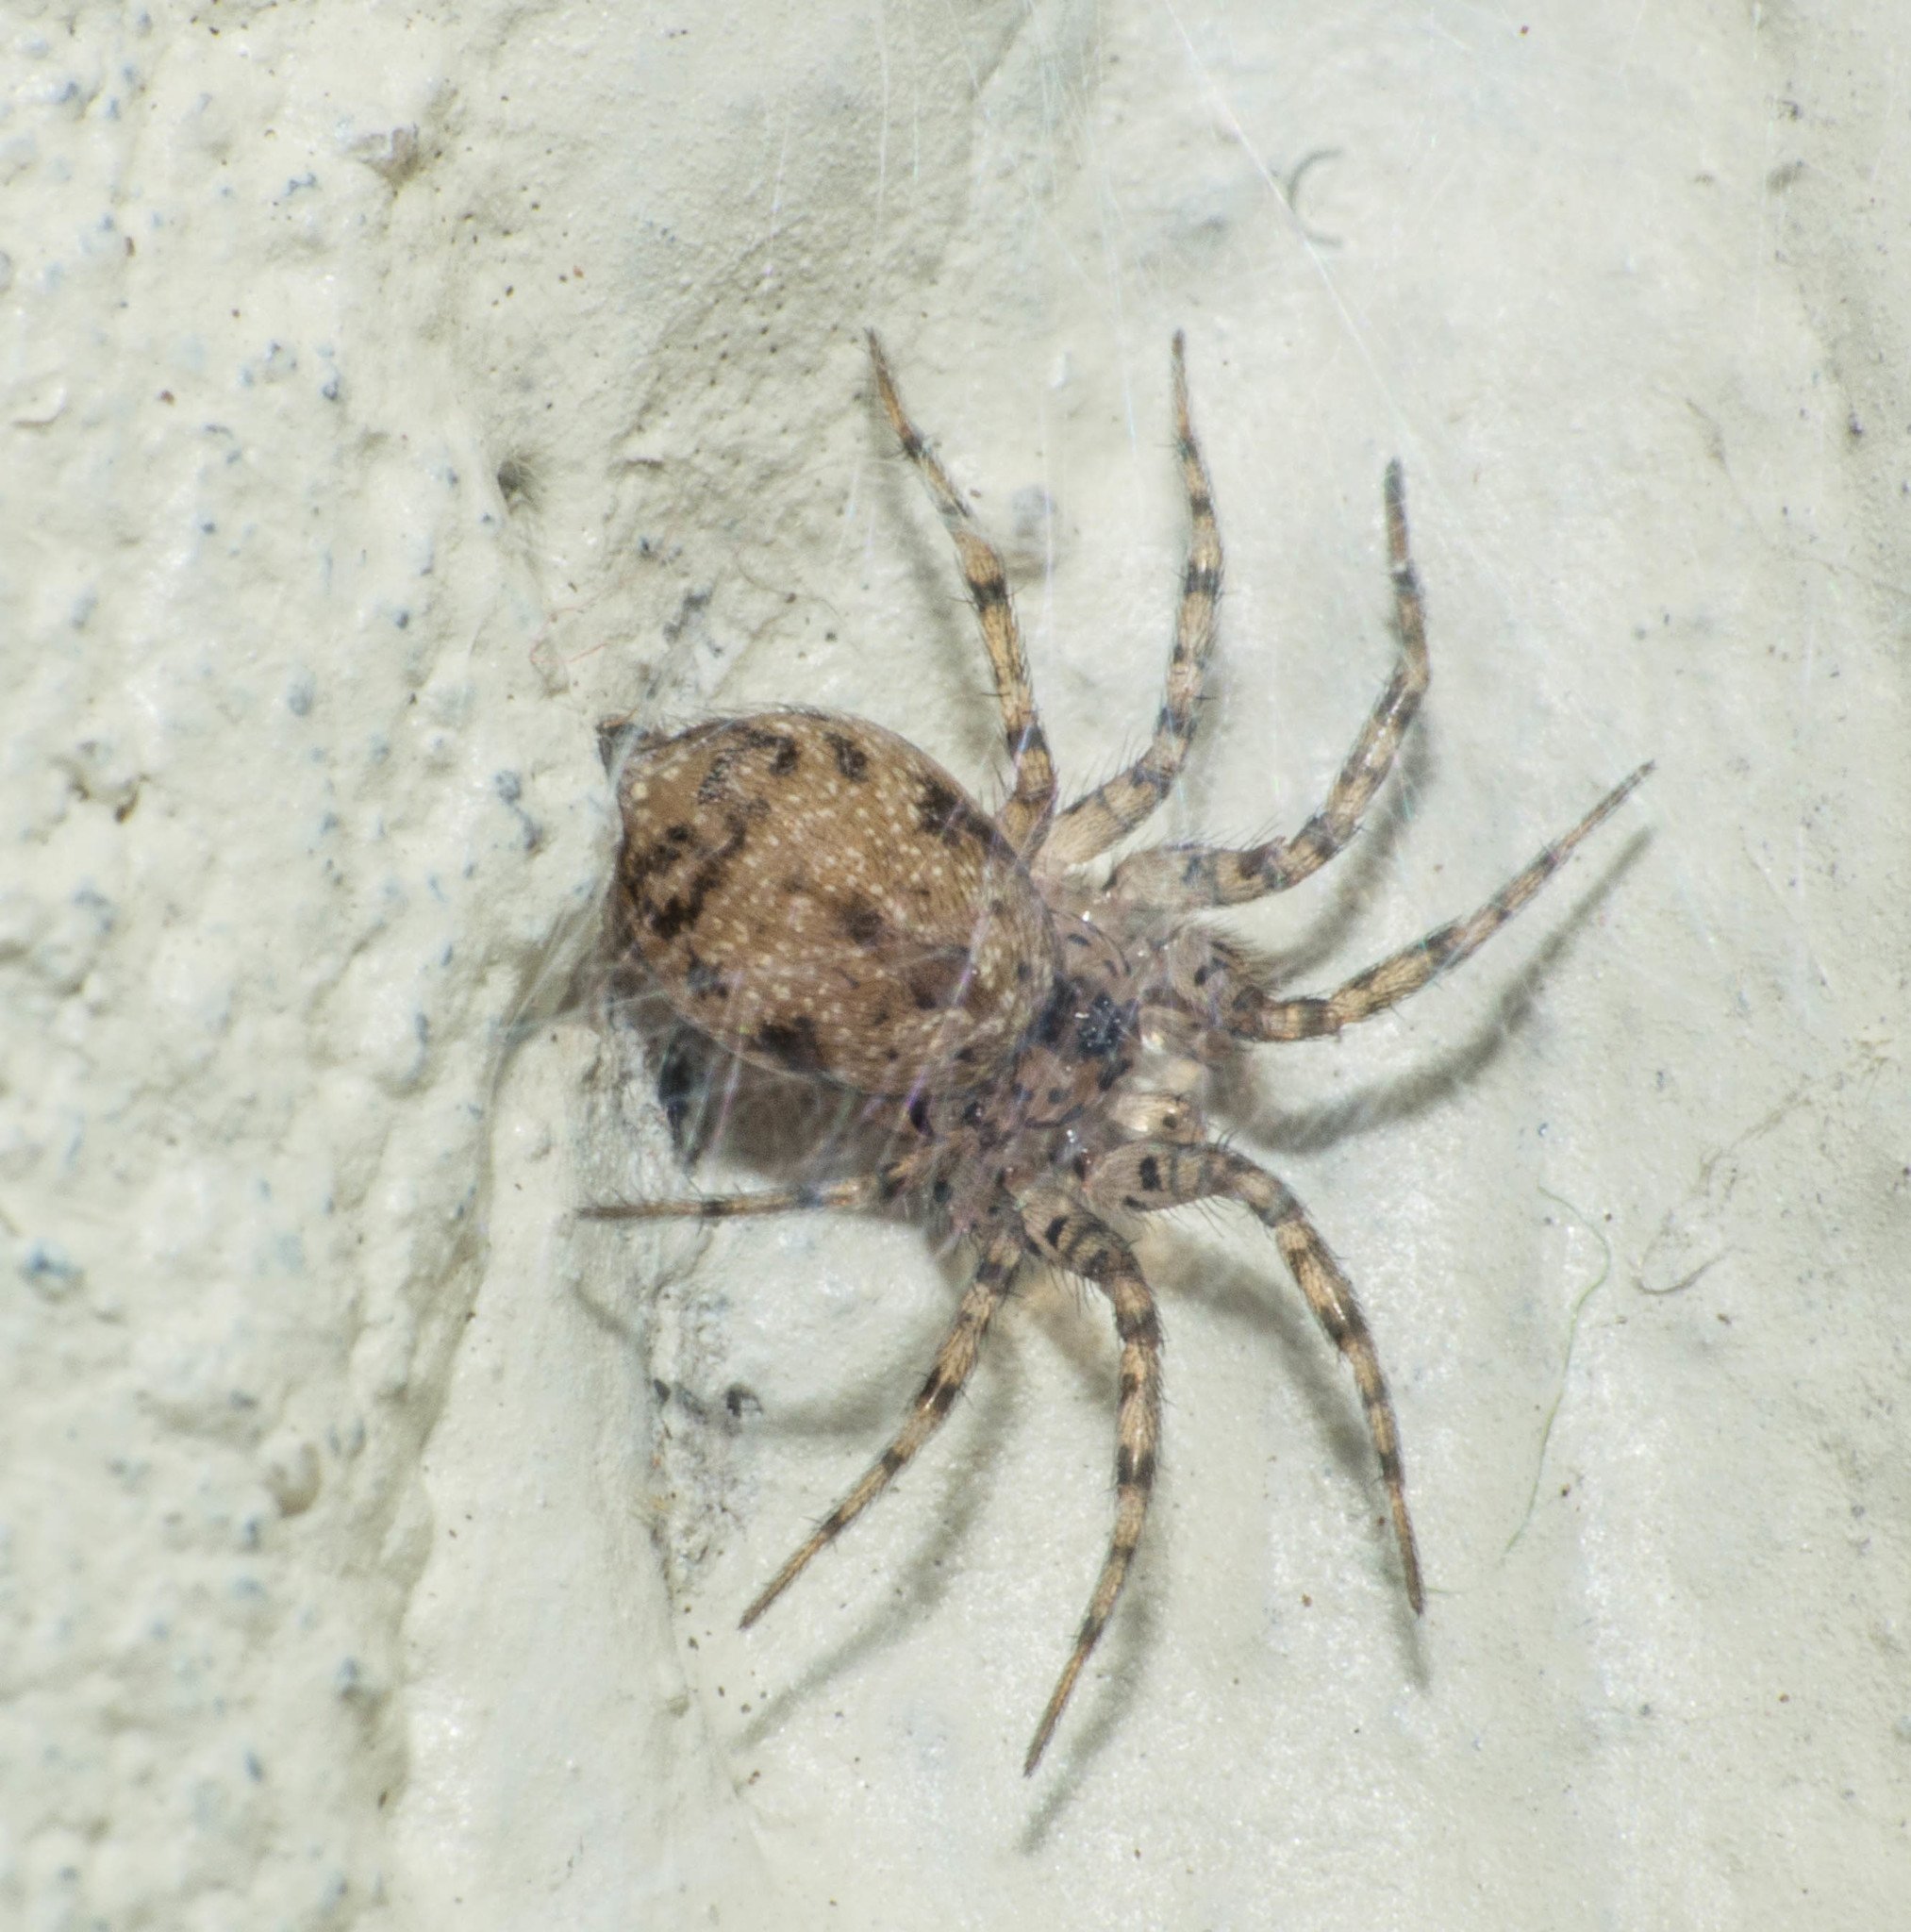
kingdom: Animalia
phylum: Arthropoda
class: Arachnida
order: Araneae
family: Oecobiidae
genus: Oecobius
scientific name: Oecobius navus
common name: Flatmesh weaver
